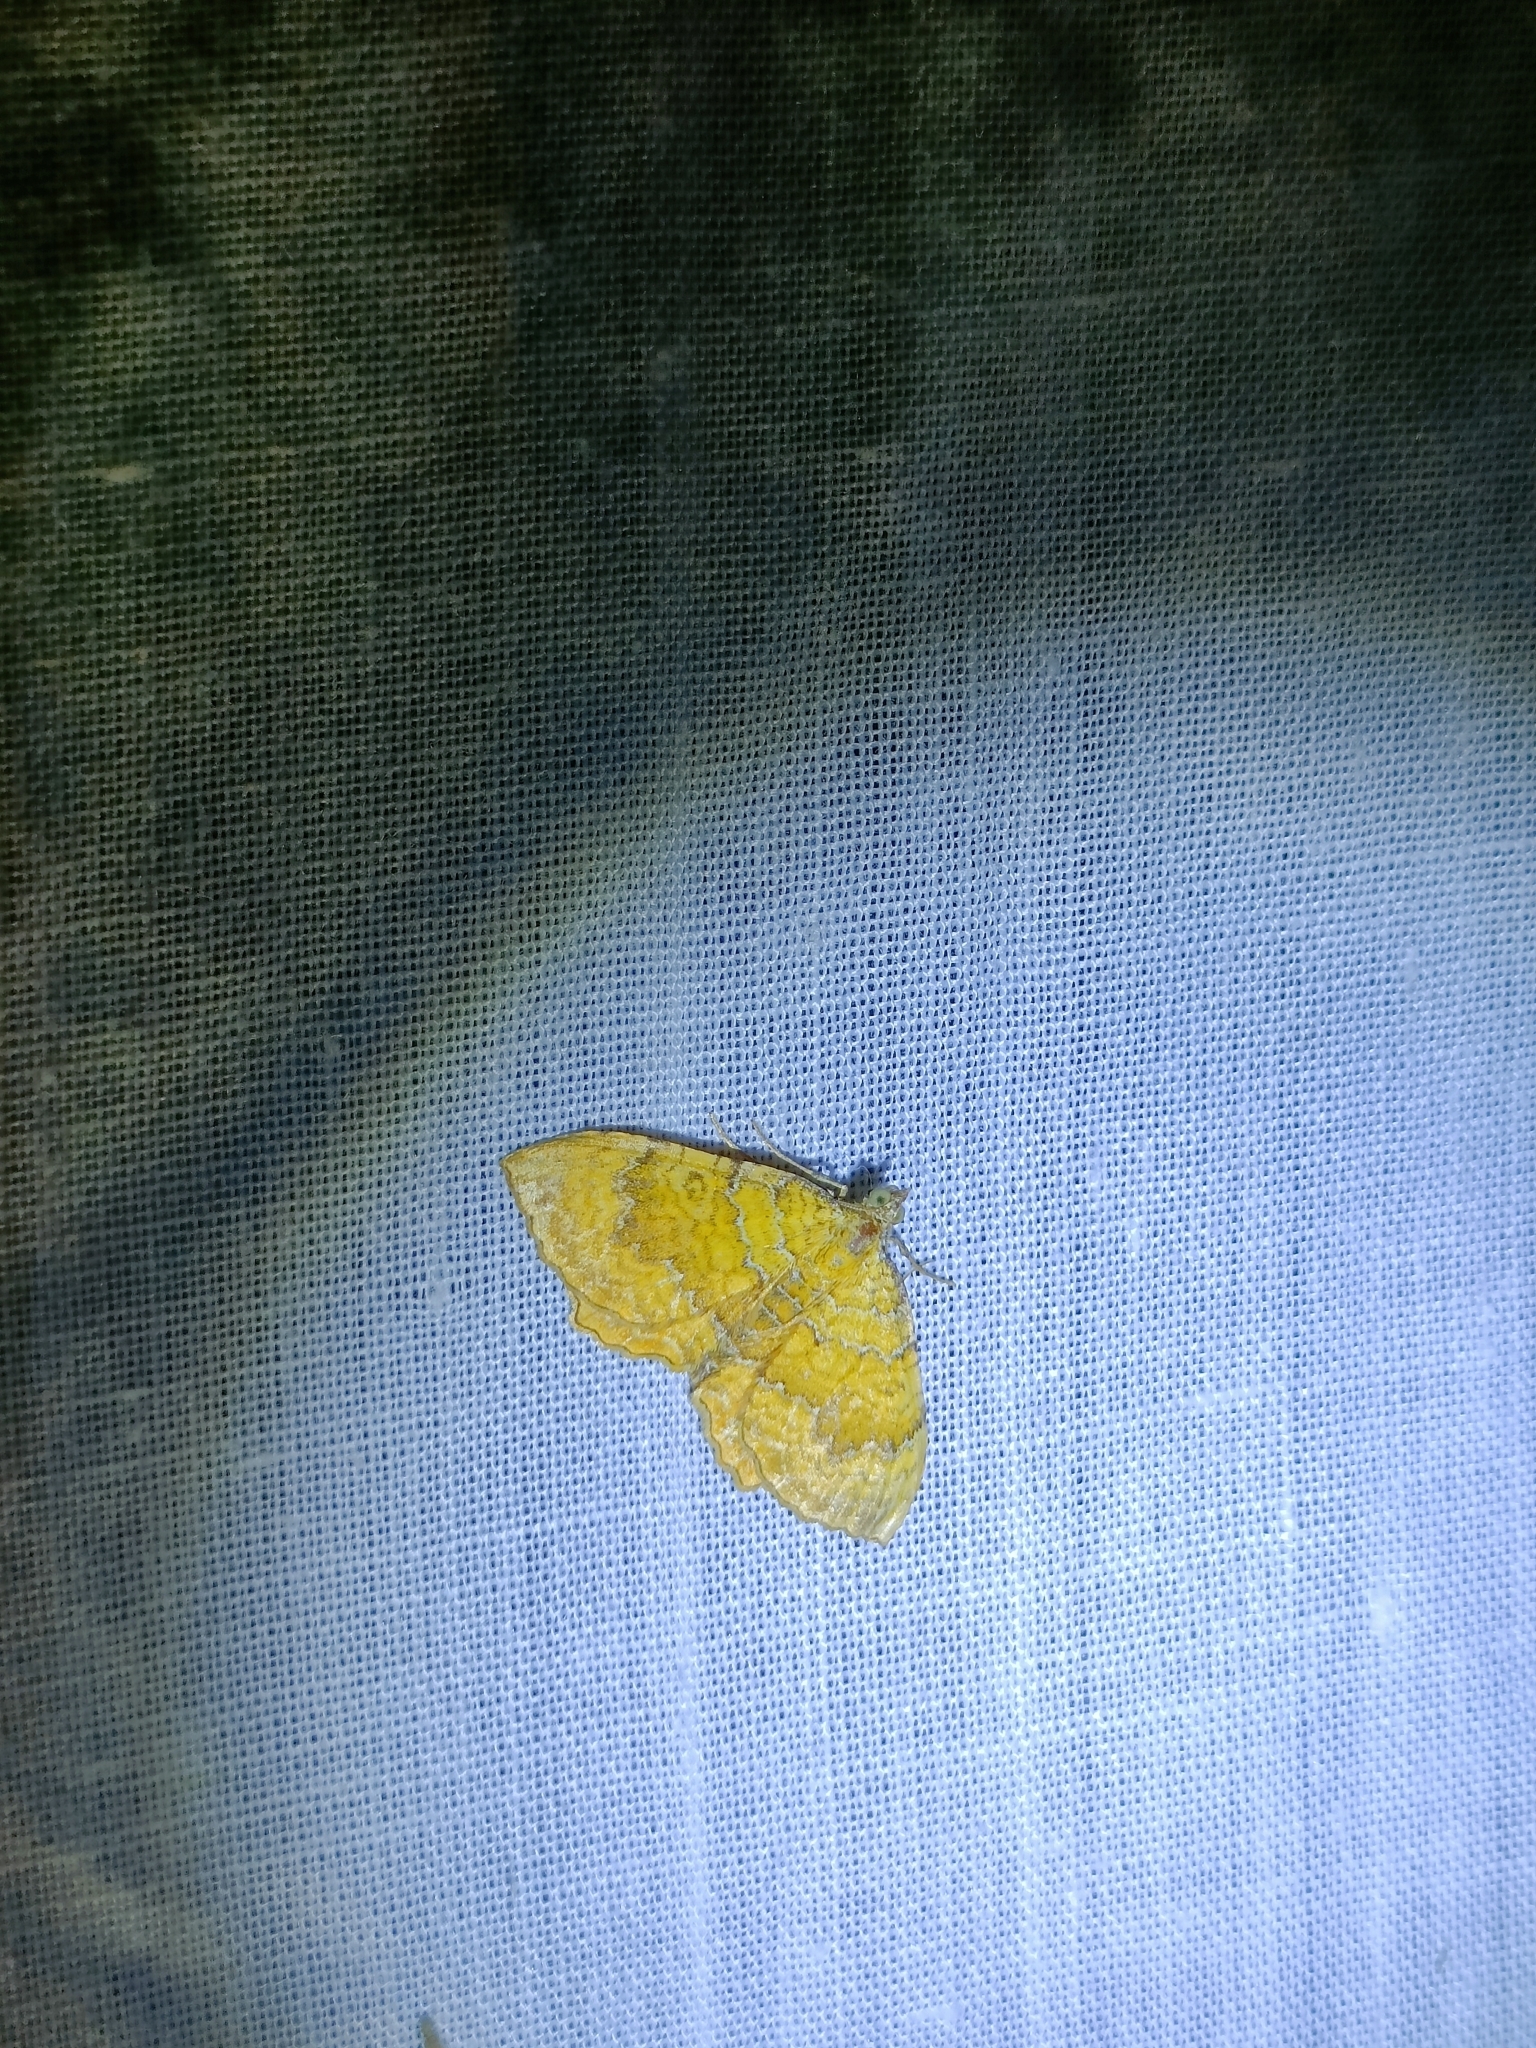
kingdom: Animalia
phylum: Arthropoda
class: Insecta
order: Lepidoptera
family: Geometridae
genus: Camptogramma
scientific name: Camptogramma bilineata
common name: Yellow shell
